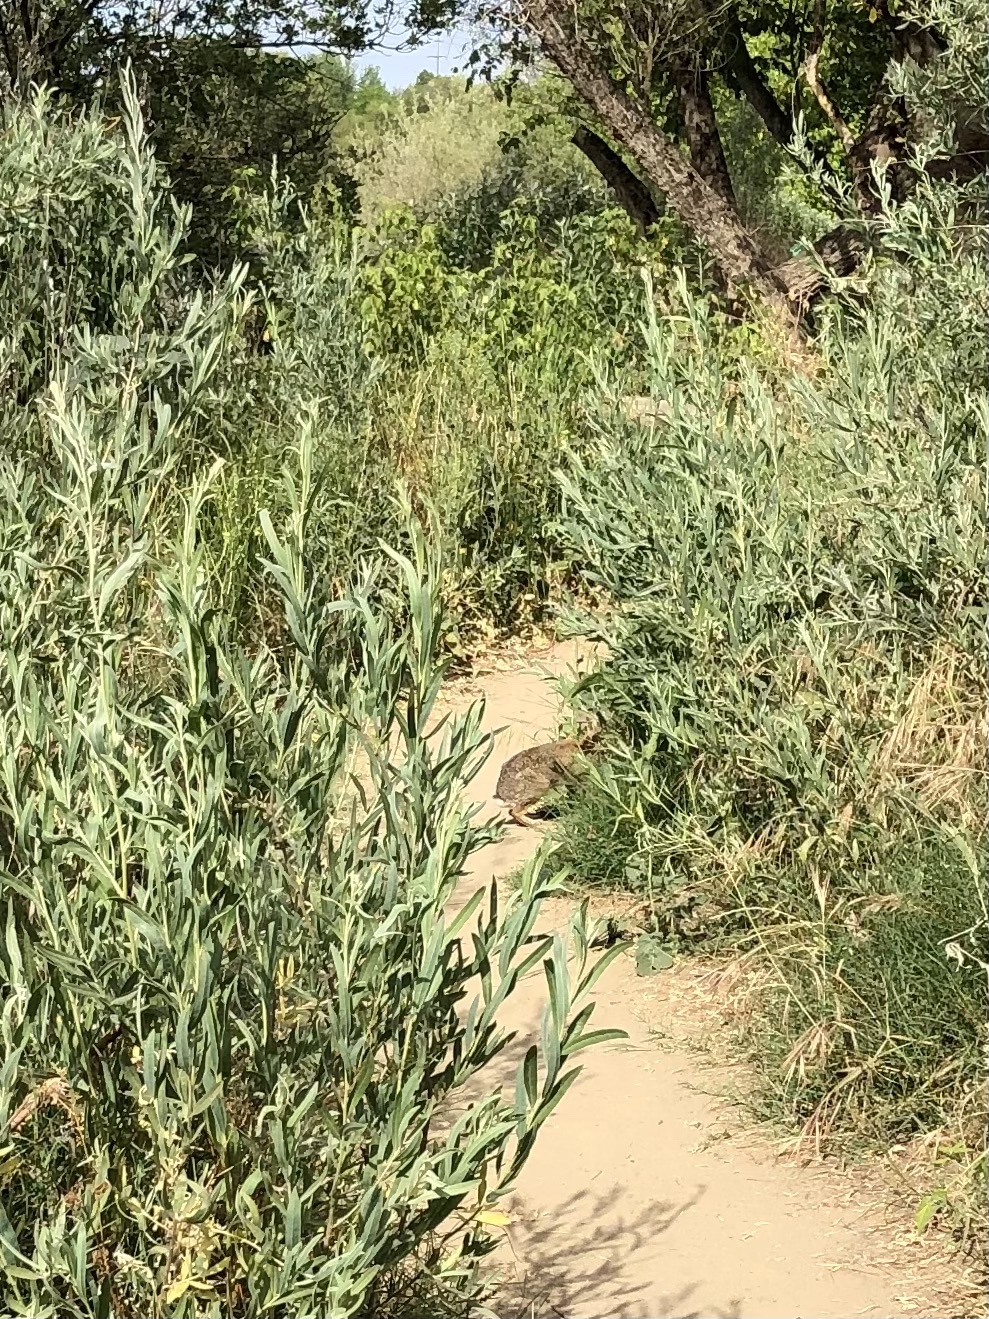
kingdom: Animalia
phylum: Chordata
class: Mammalia
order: Lagomorpha
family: Leporidae
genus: Sylvilagus
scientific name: Sylvilagus audubonii
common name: Desert cottontail
